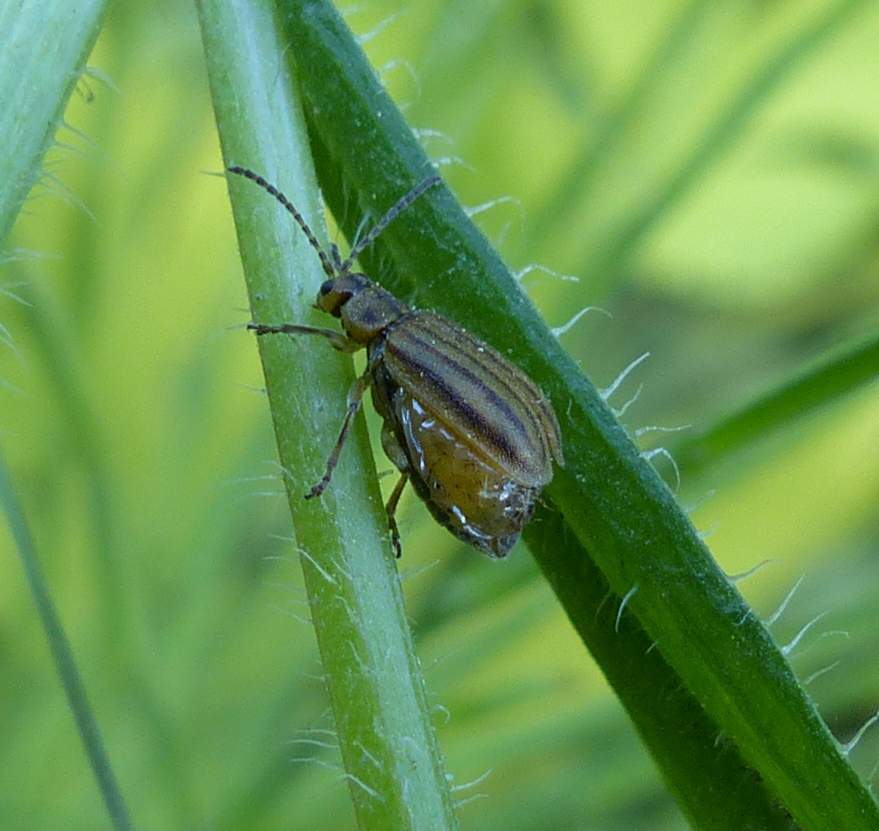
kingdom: Animalia
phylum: Arthropoda
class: Insecta
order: Coleoptera
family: Chrysomelidae
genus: Ophraella
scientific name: Ophraella conferta
